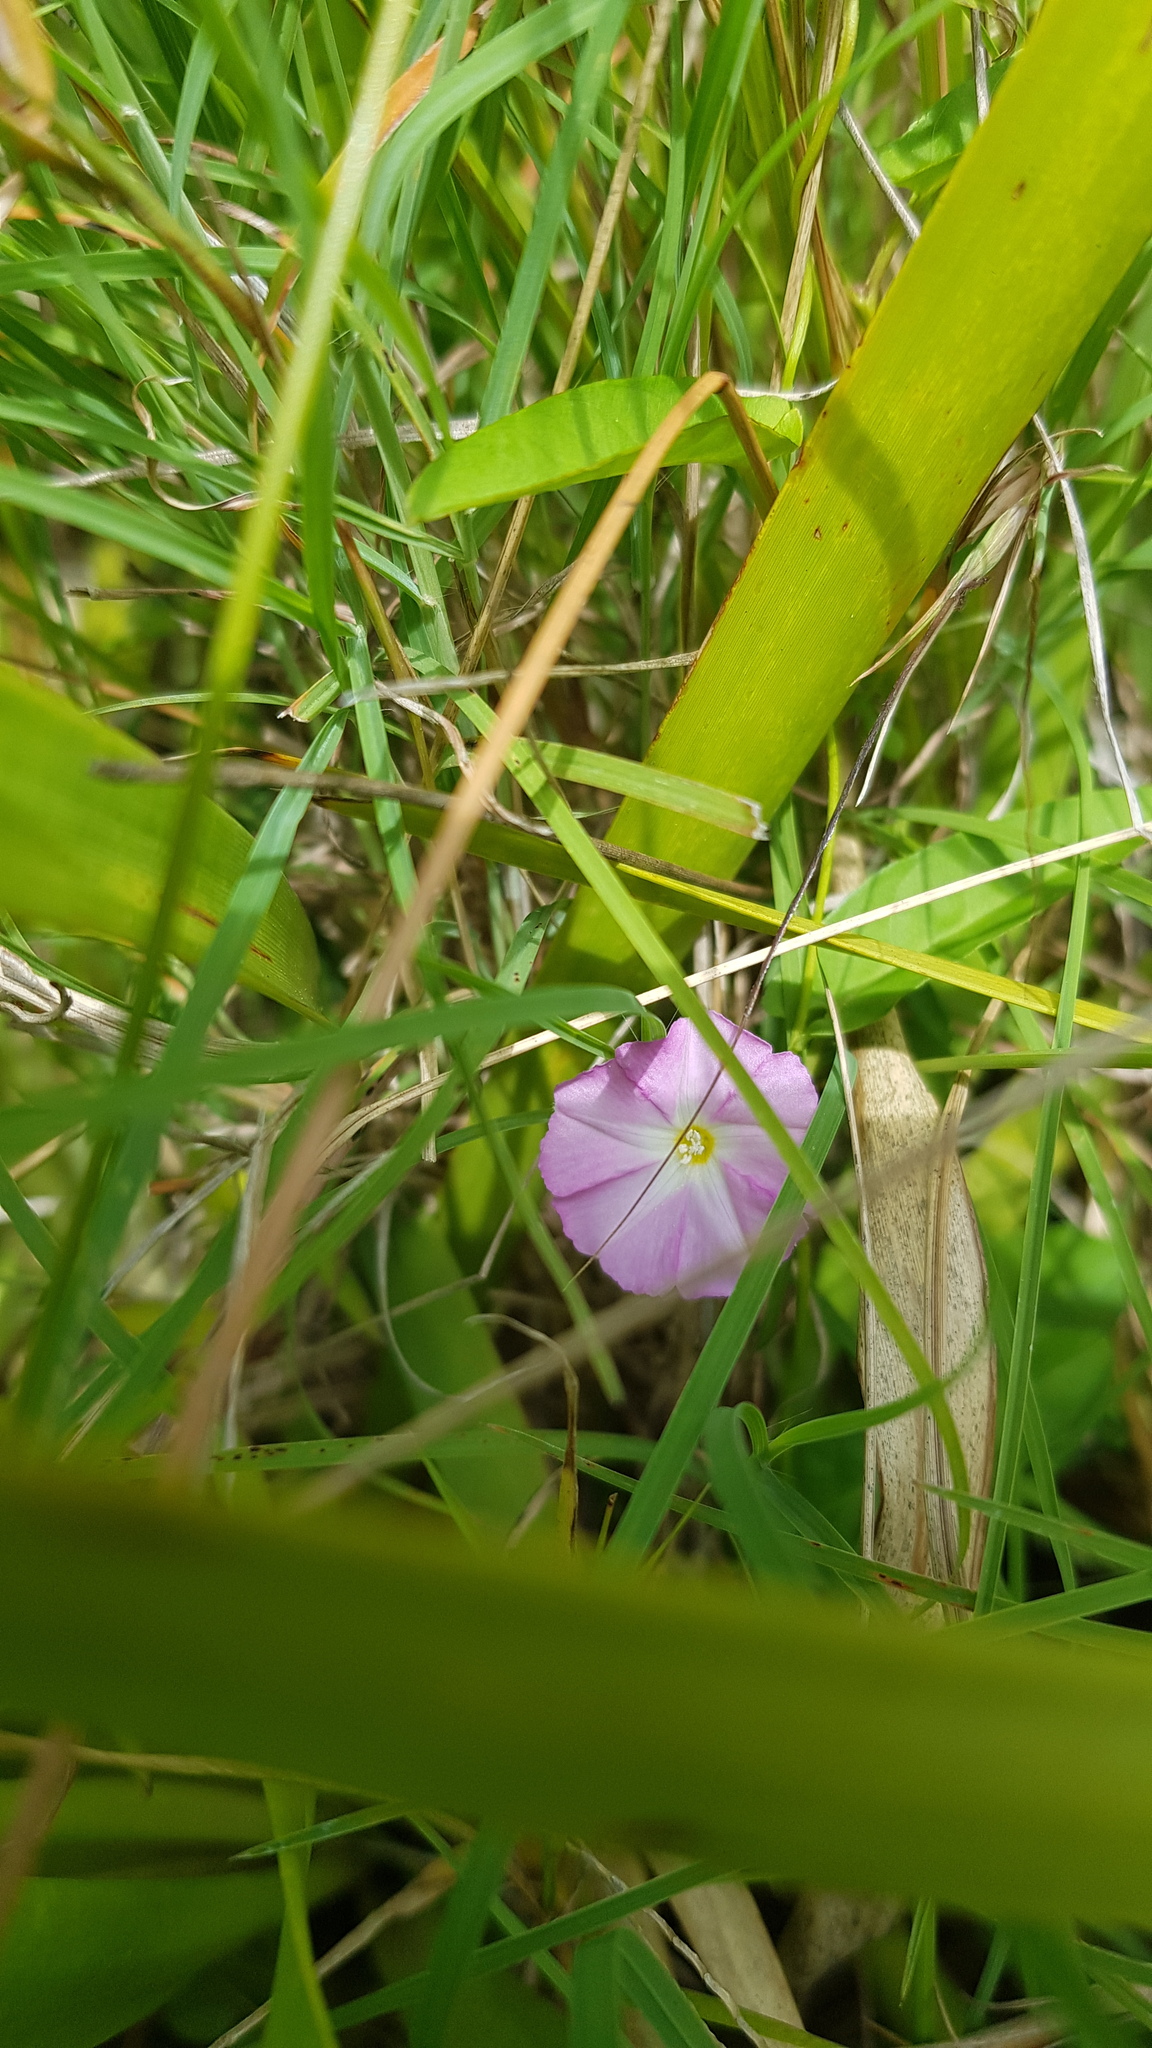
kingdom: Plantae
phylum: Tracheophyta
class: Magnoliopsida
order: Solanales
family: Convolvulaceae
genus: Polymeria
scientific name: Polymeria calycina
